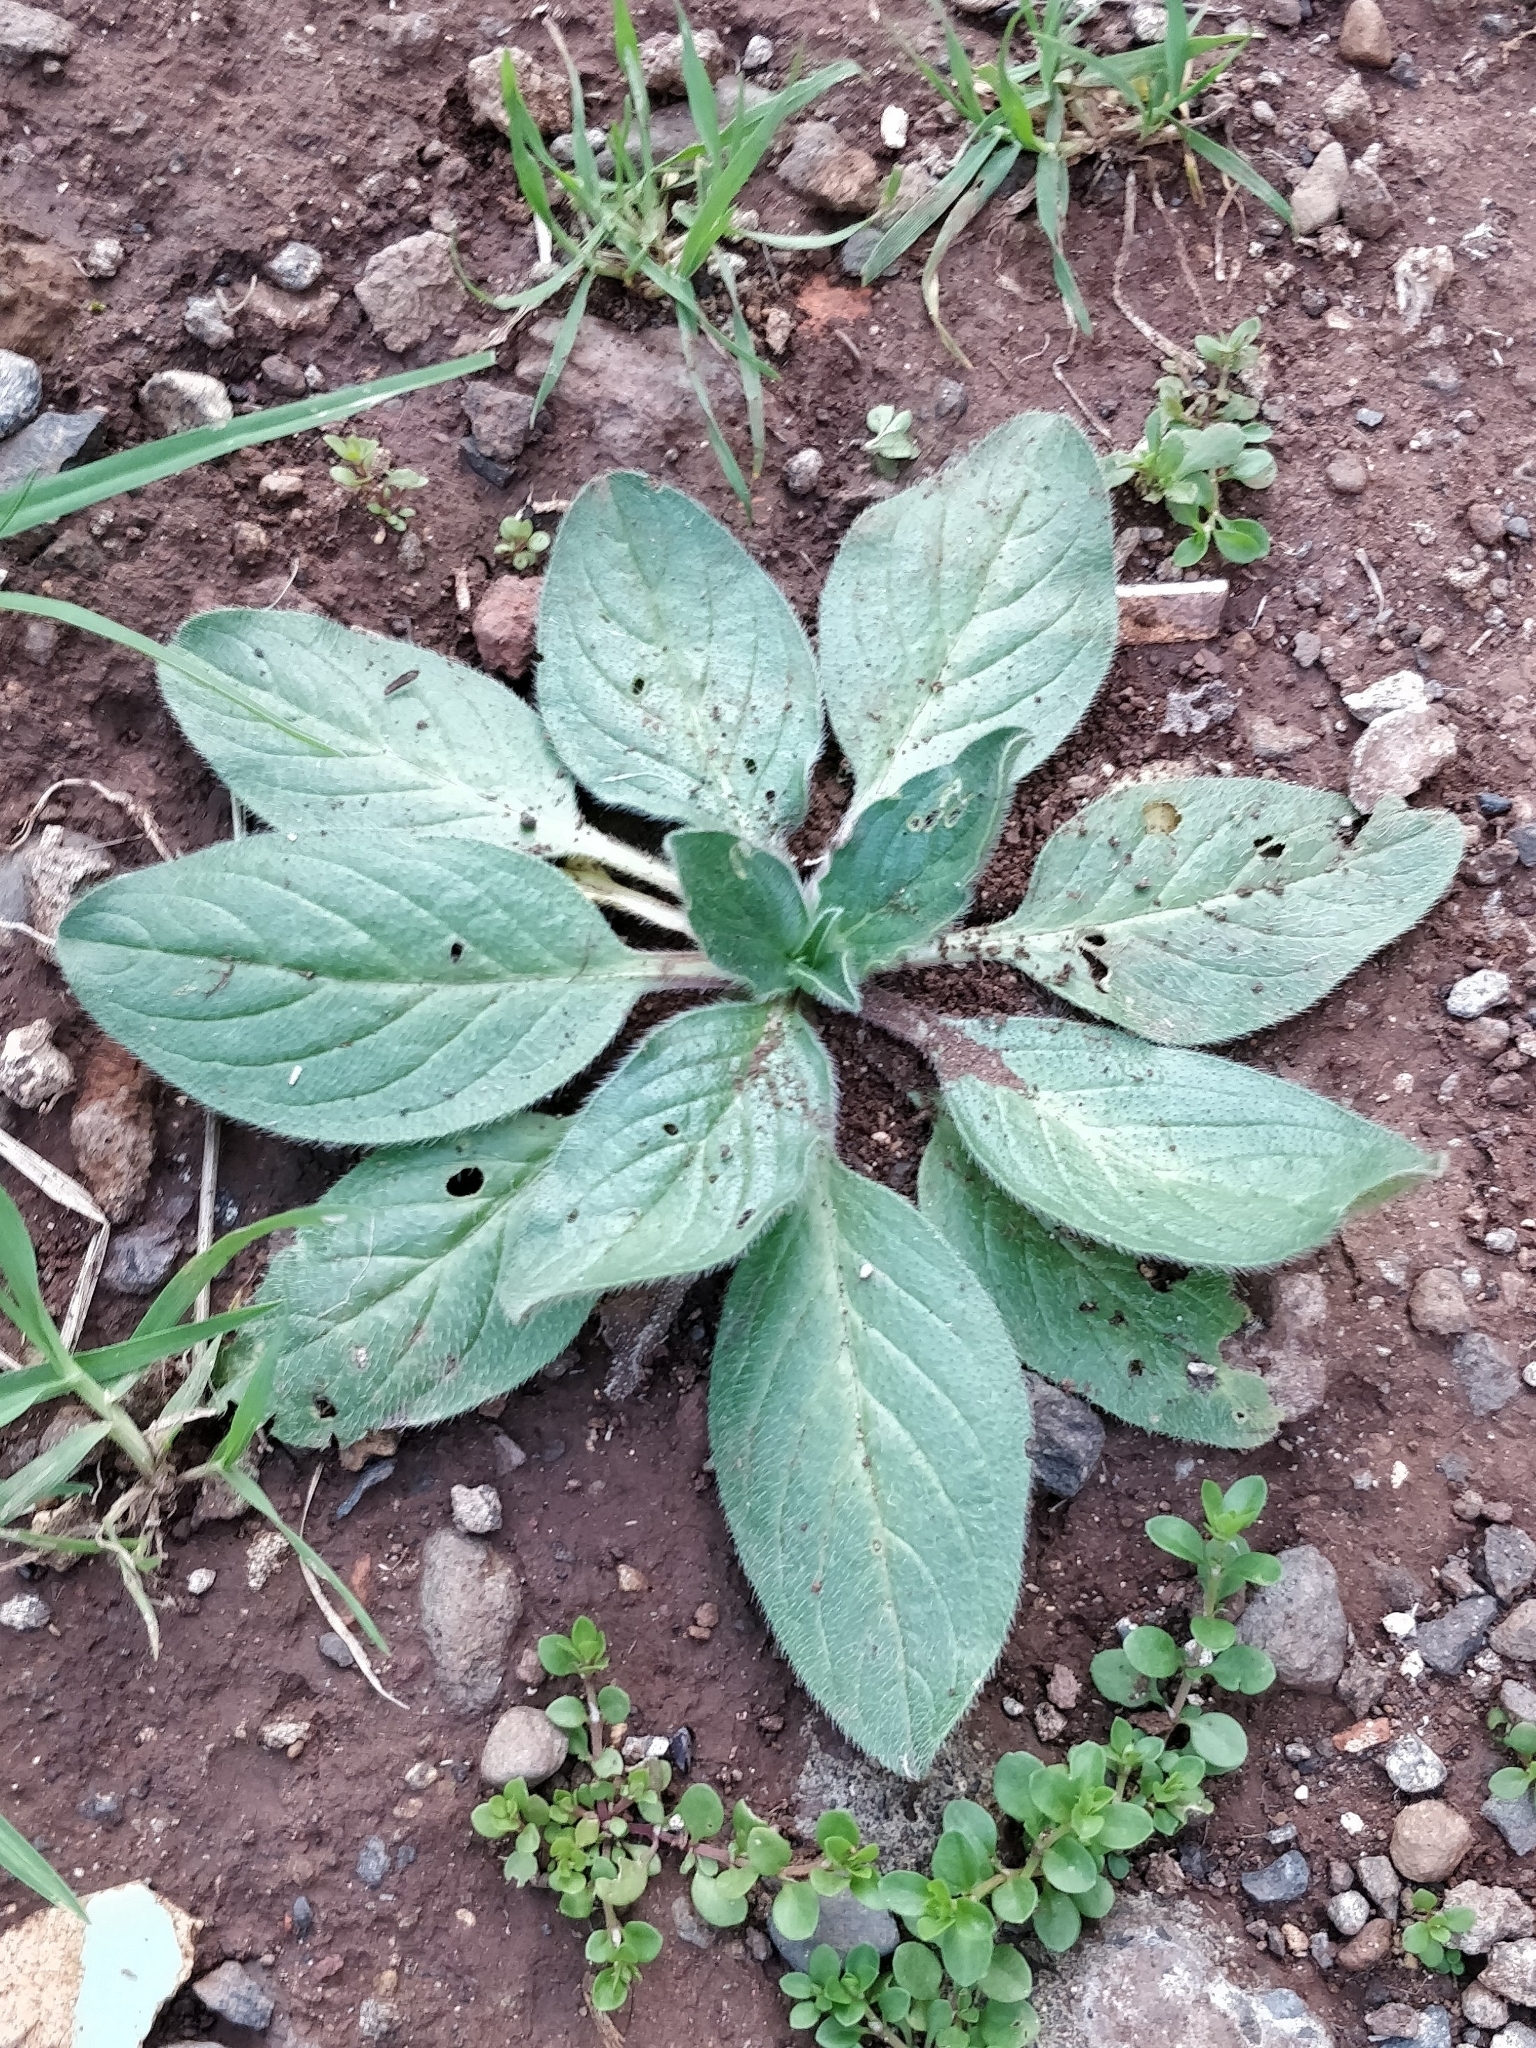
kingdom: Plantae
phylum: Tracheophyta
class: Magnoliopsida
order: Boraginales
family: Boraginaceae
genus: Echium
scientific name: Echium plantagineum
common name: Purple viper's-bugloss
